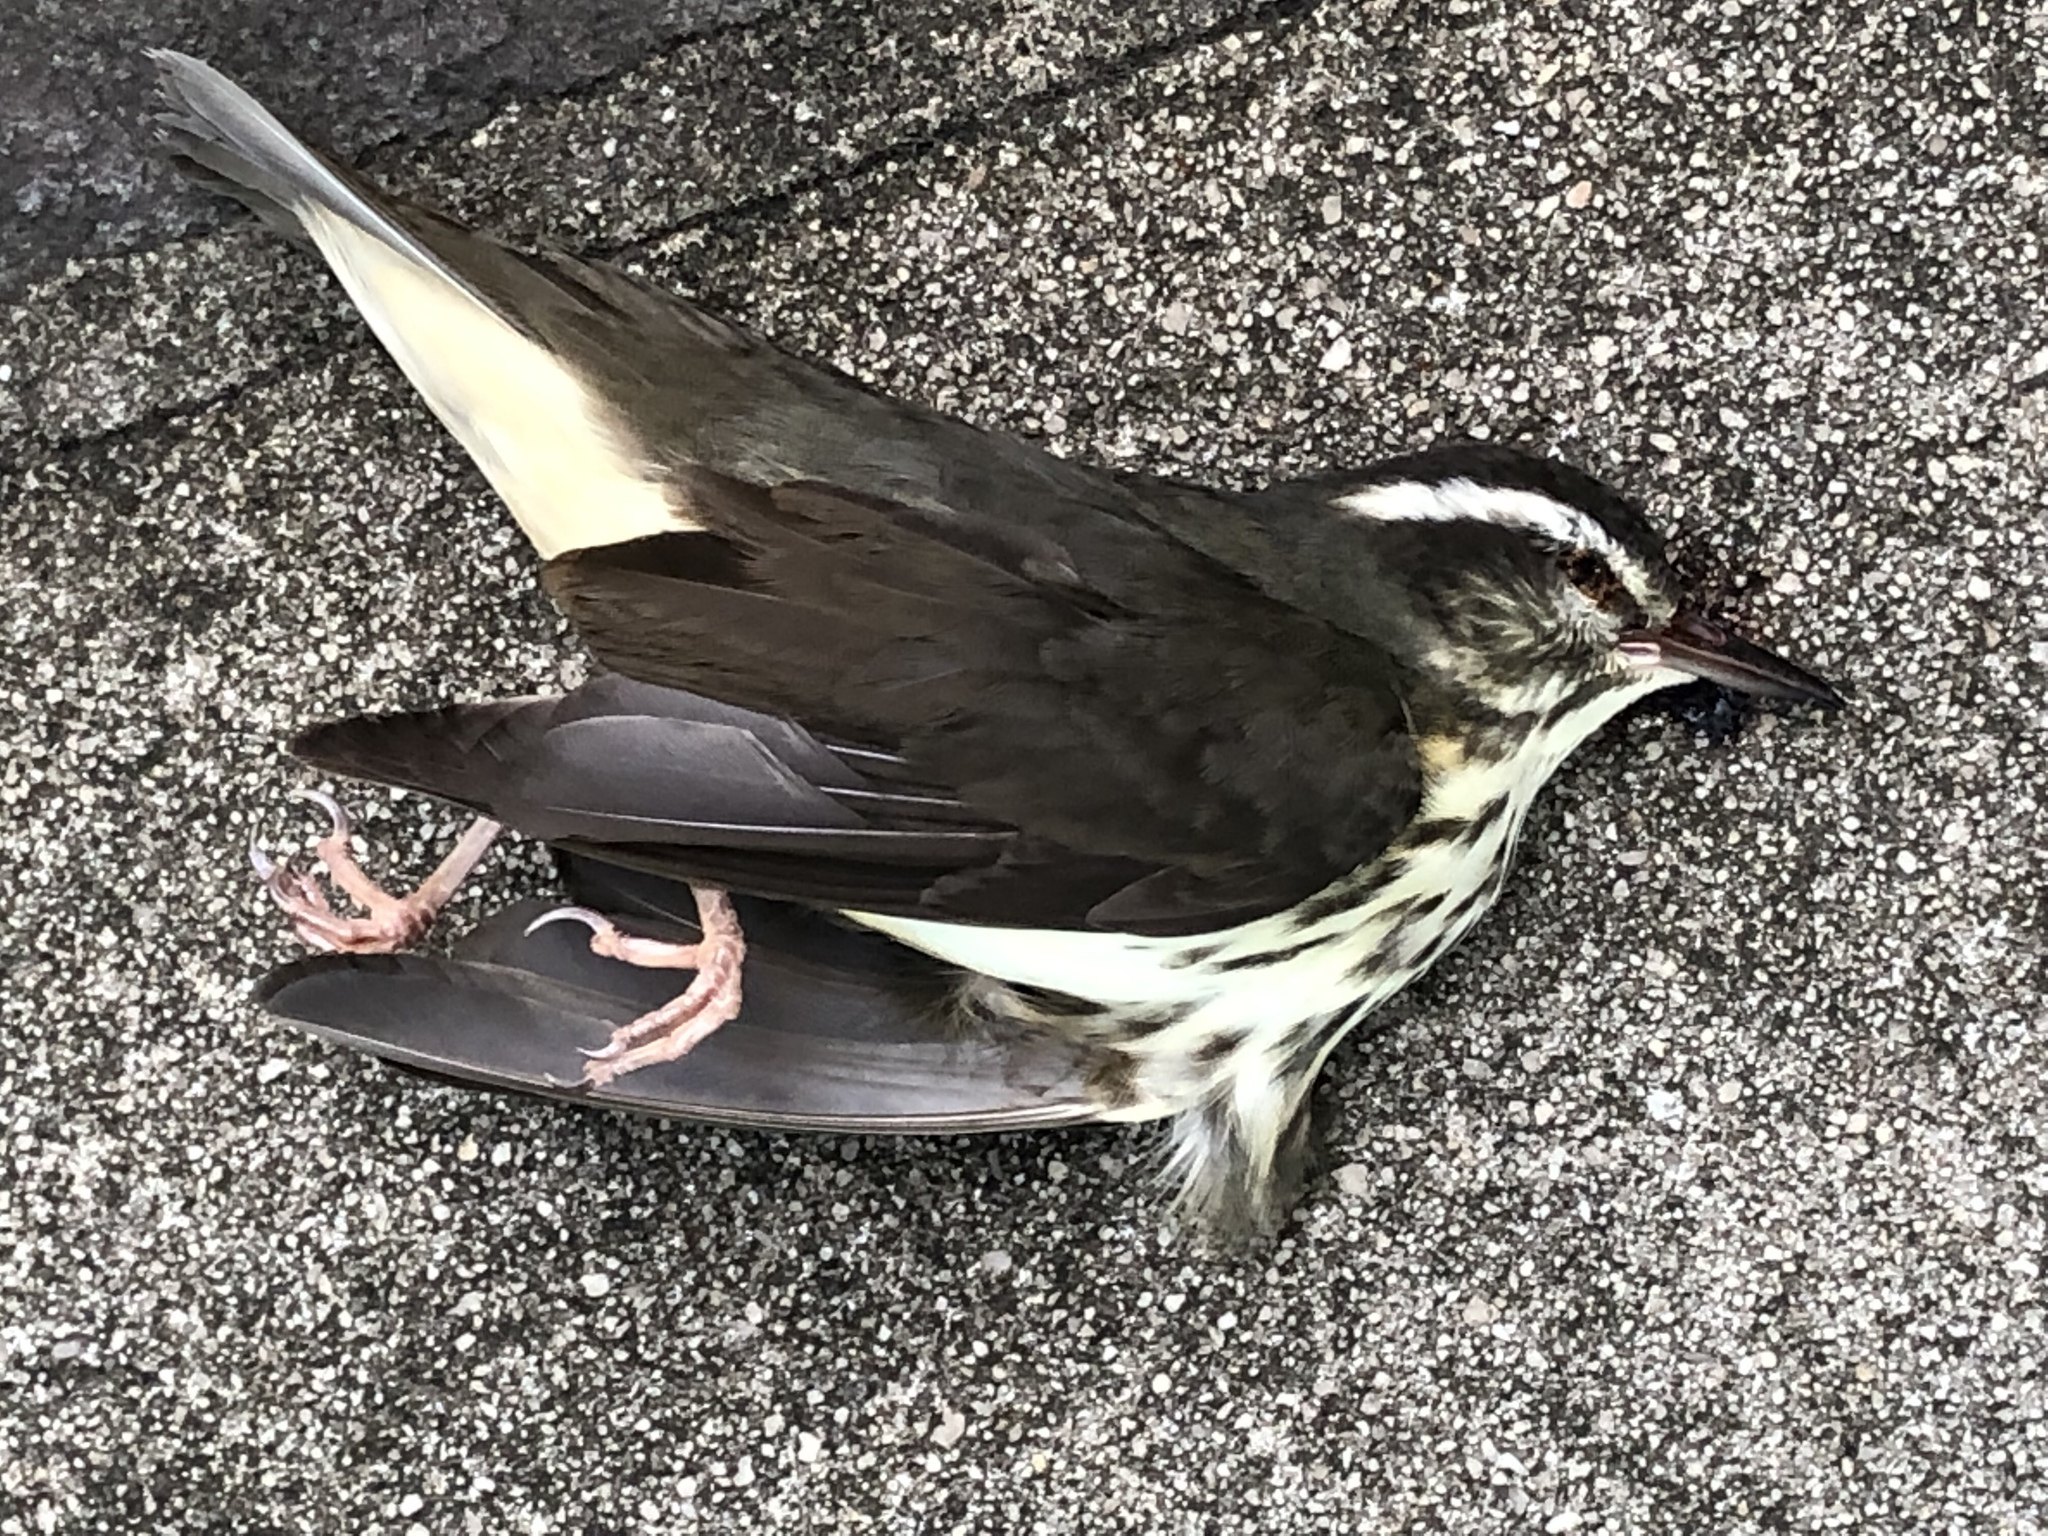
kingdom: Animalia
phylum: Chordata
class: Aves
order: Passeriformes
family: Parulidae
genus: Parkesia
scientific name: Parkesia motacilla
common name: Louisiana waterthrush
